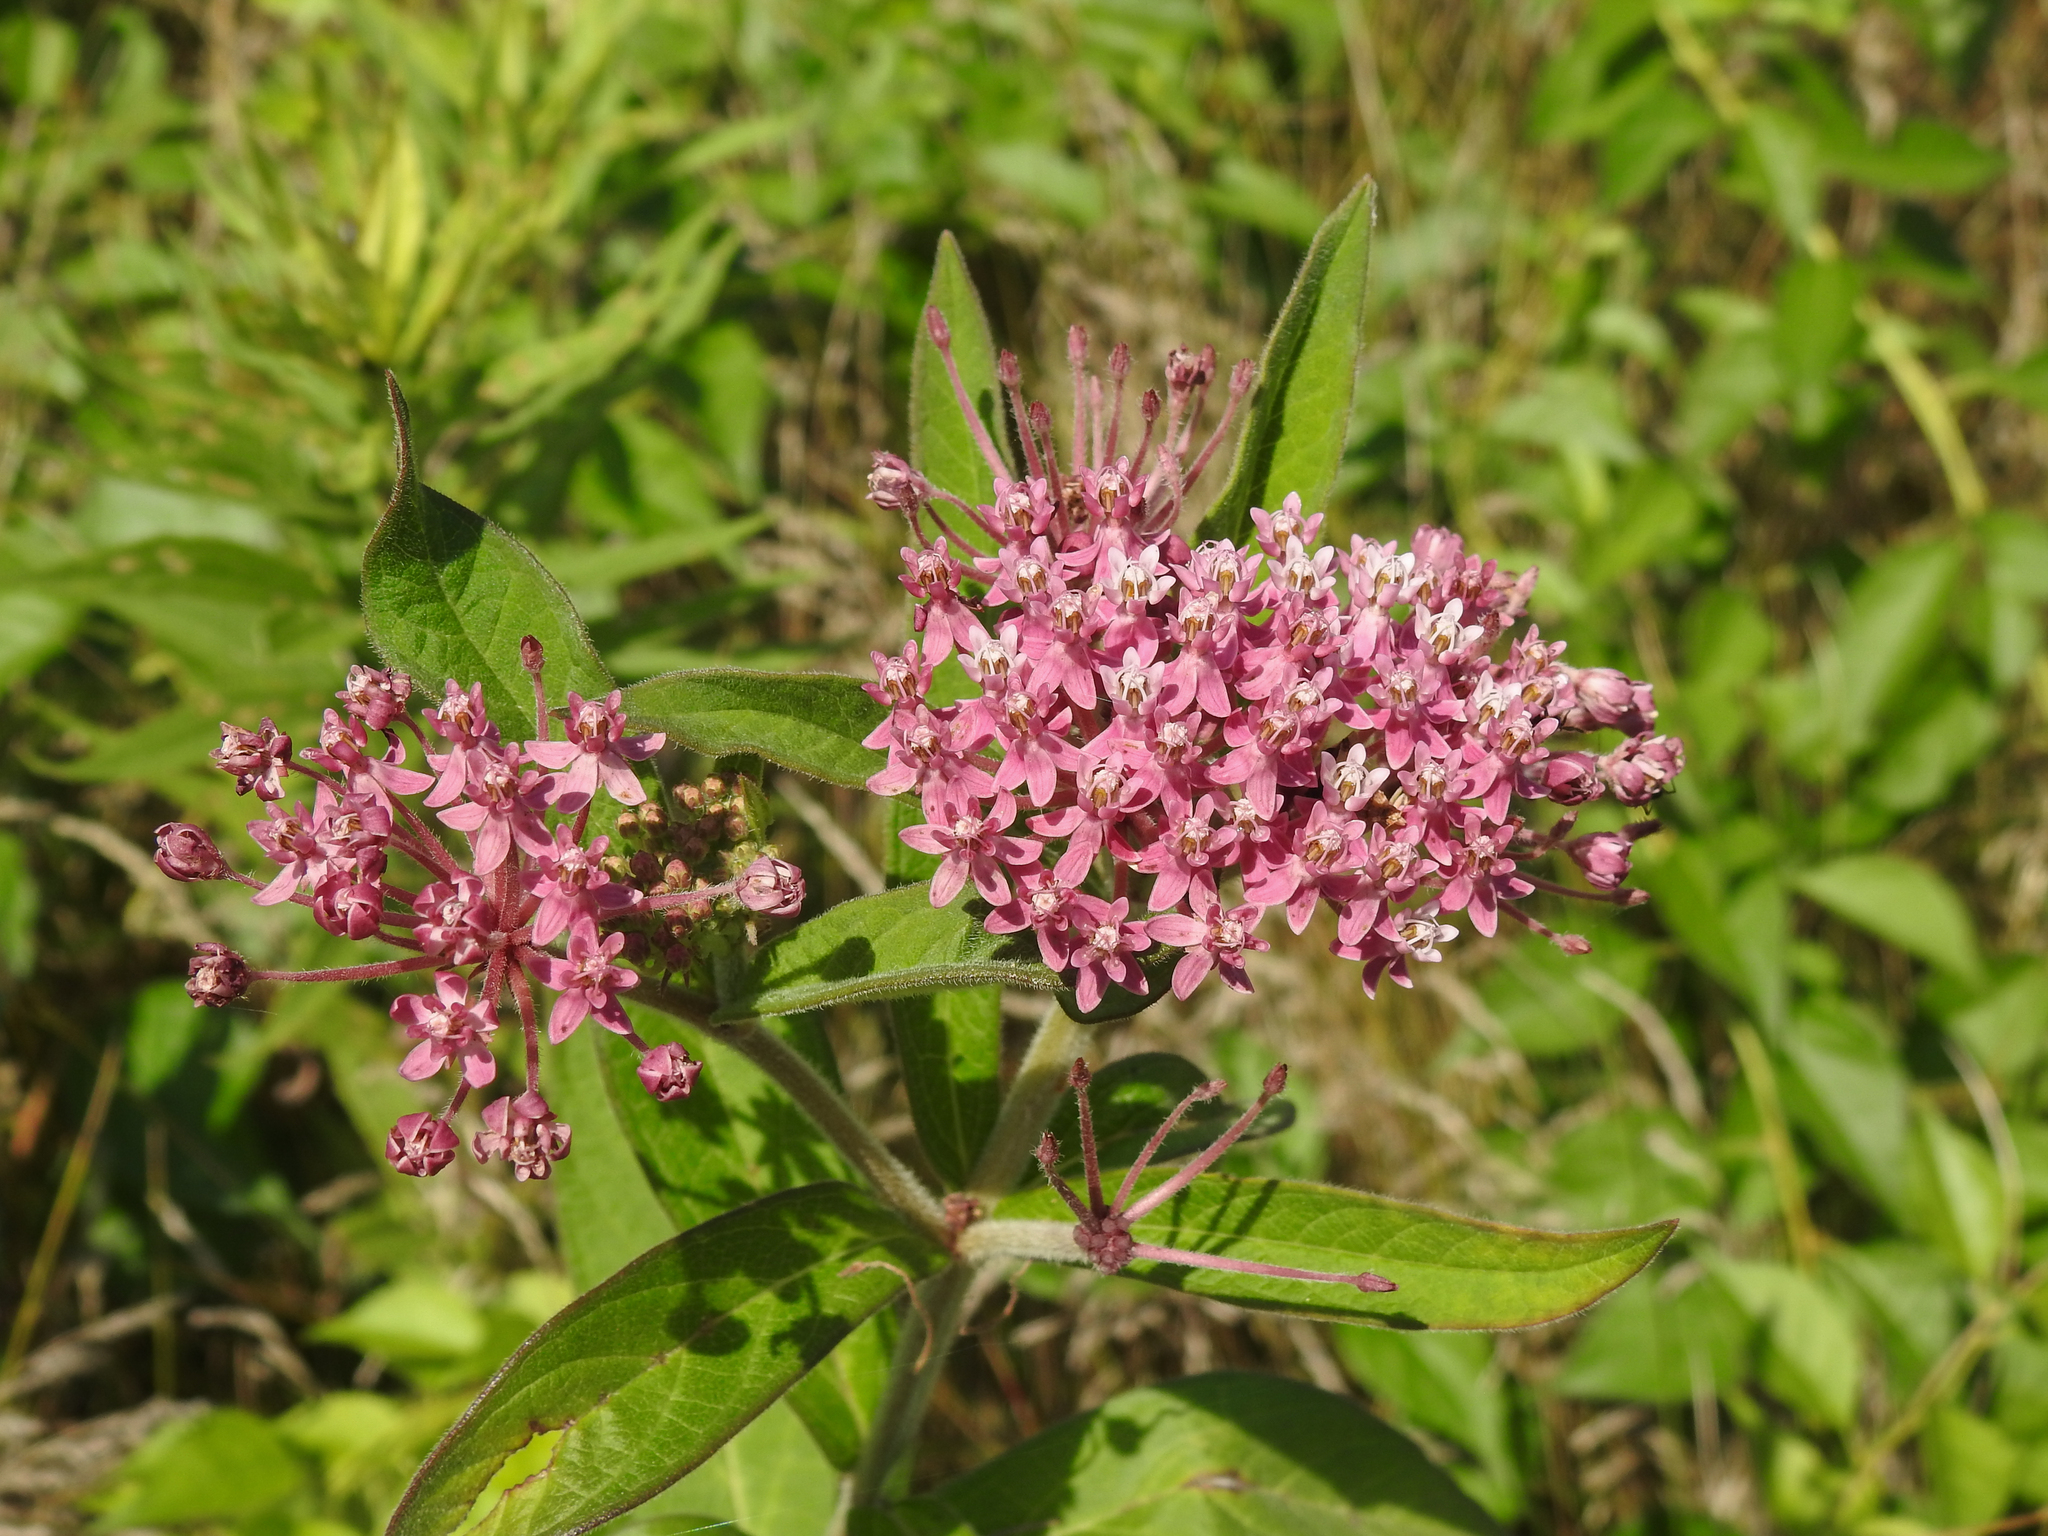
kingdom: Plantae
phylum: Tracheophyta
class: Magnoliopsida
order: Gentianales
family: Apocynaceae
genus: Asclepias
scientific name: Asclepias incarnata
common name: Swamp milkweed
